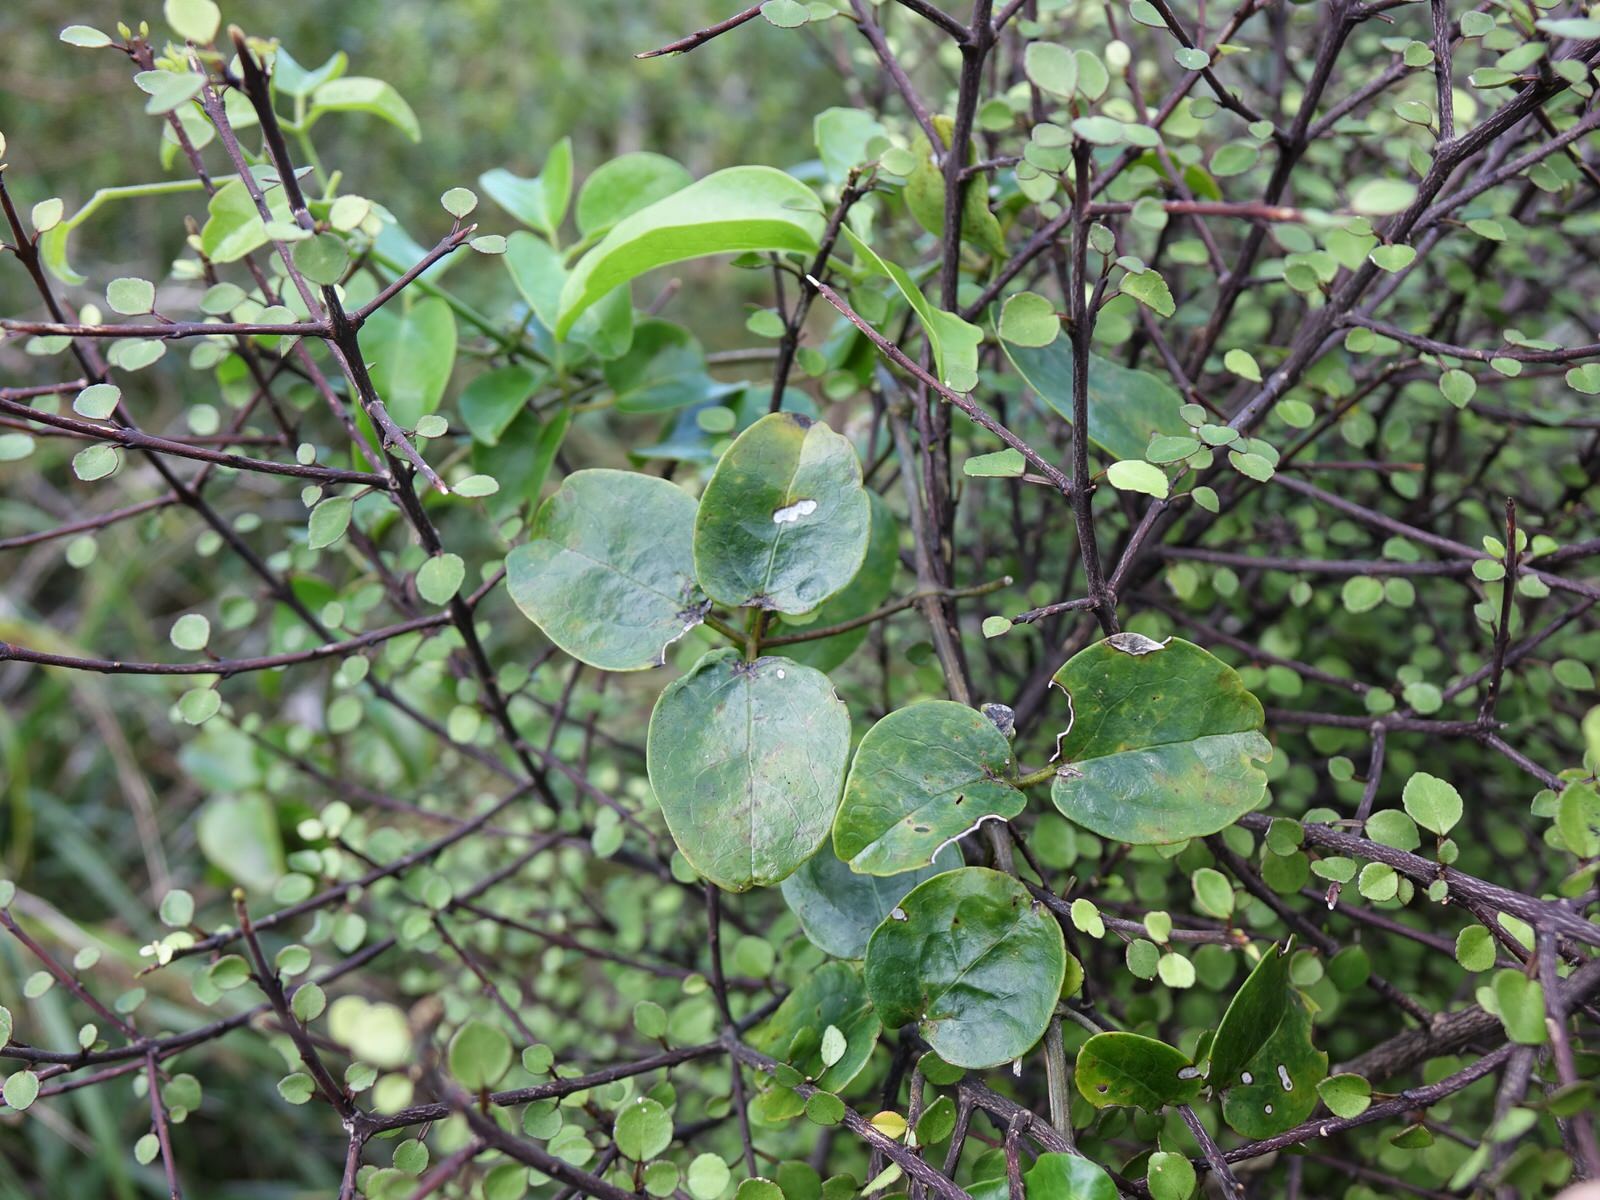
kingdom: Plantae
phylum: Tracheophyta
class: Magnoliopsida
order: Sapindales
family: Rutaceae
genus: Melicope
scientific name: Melicope simplex
